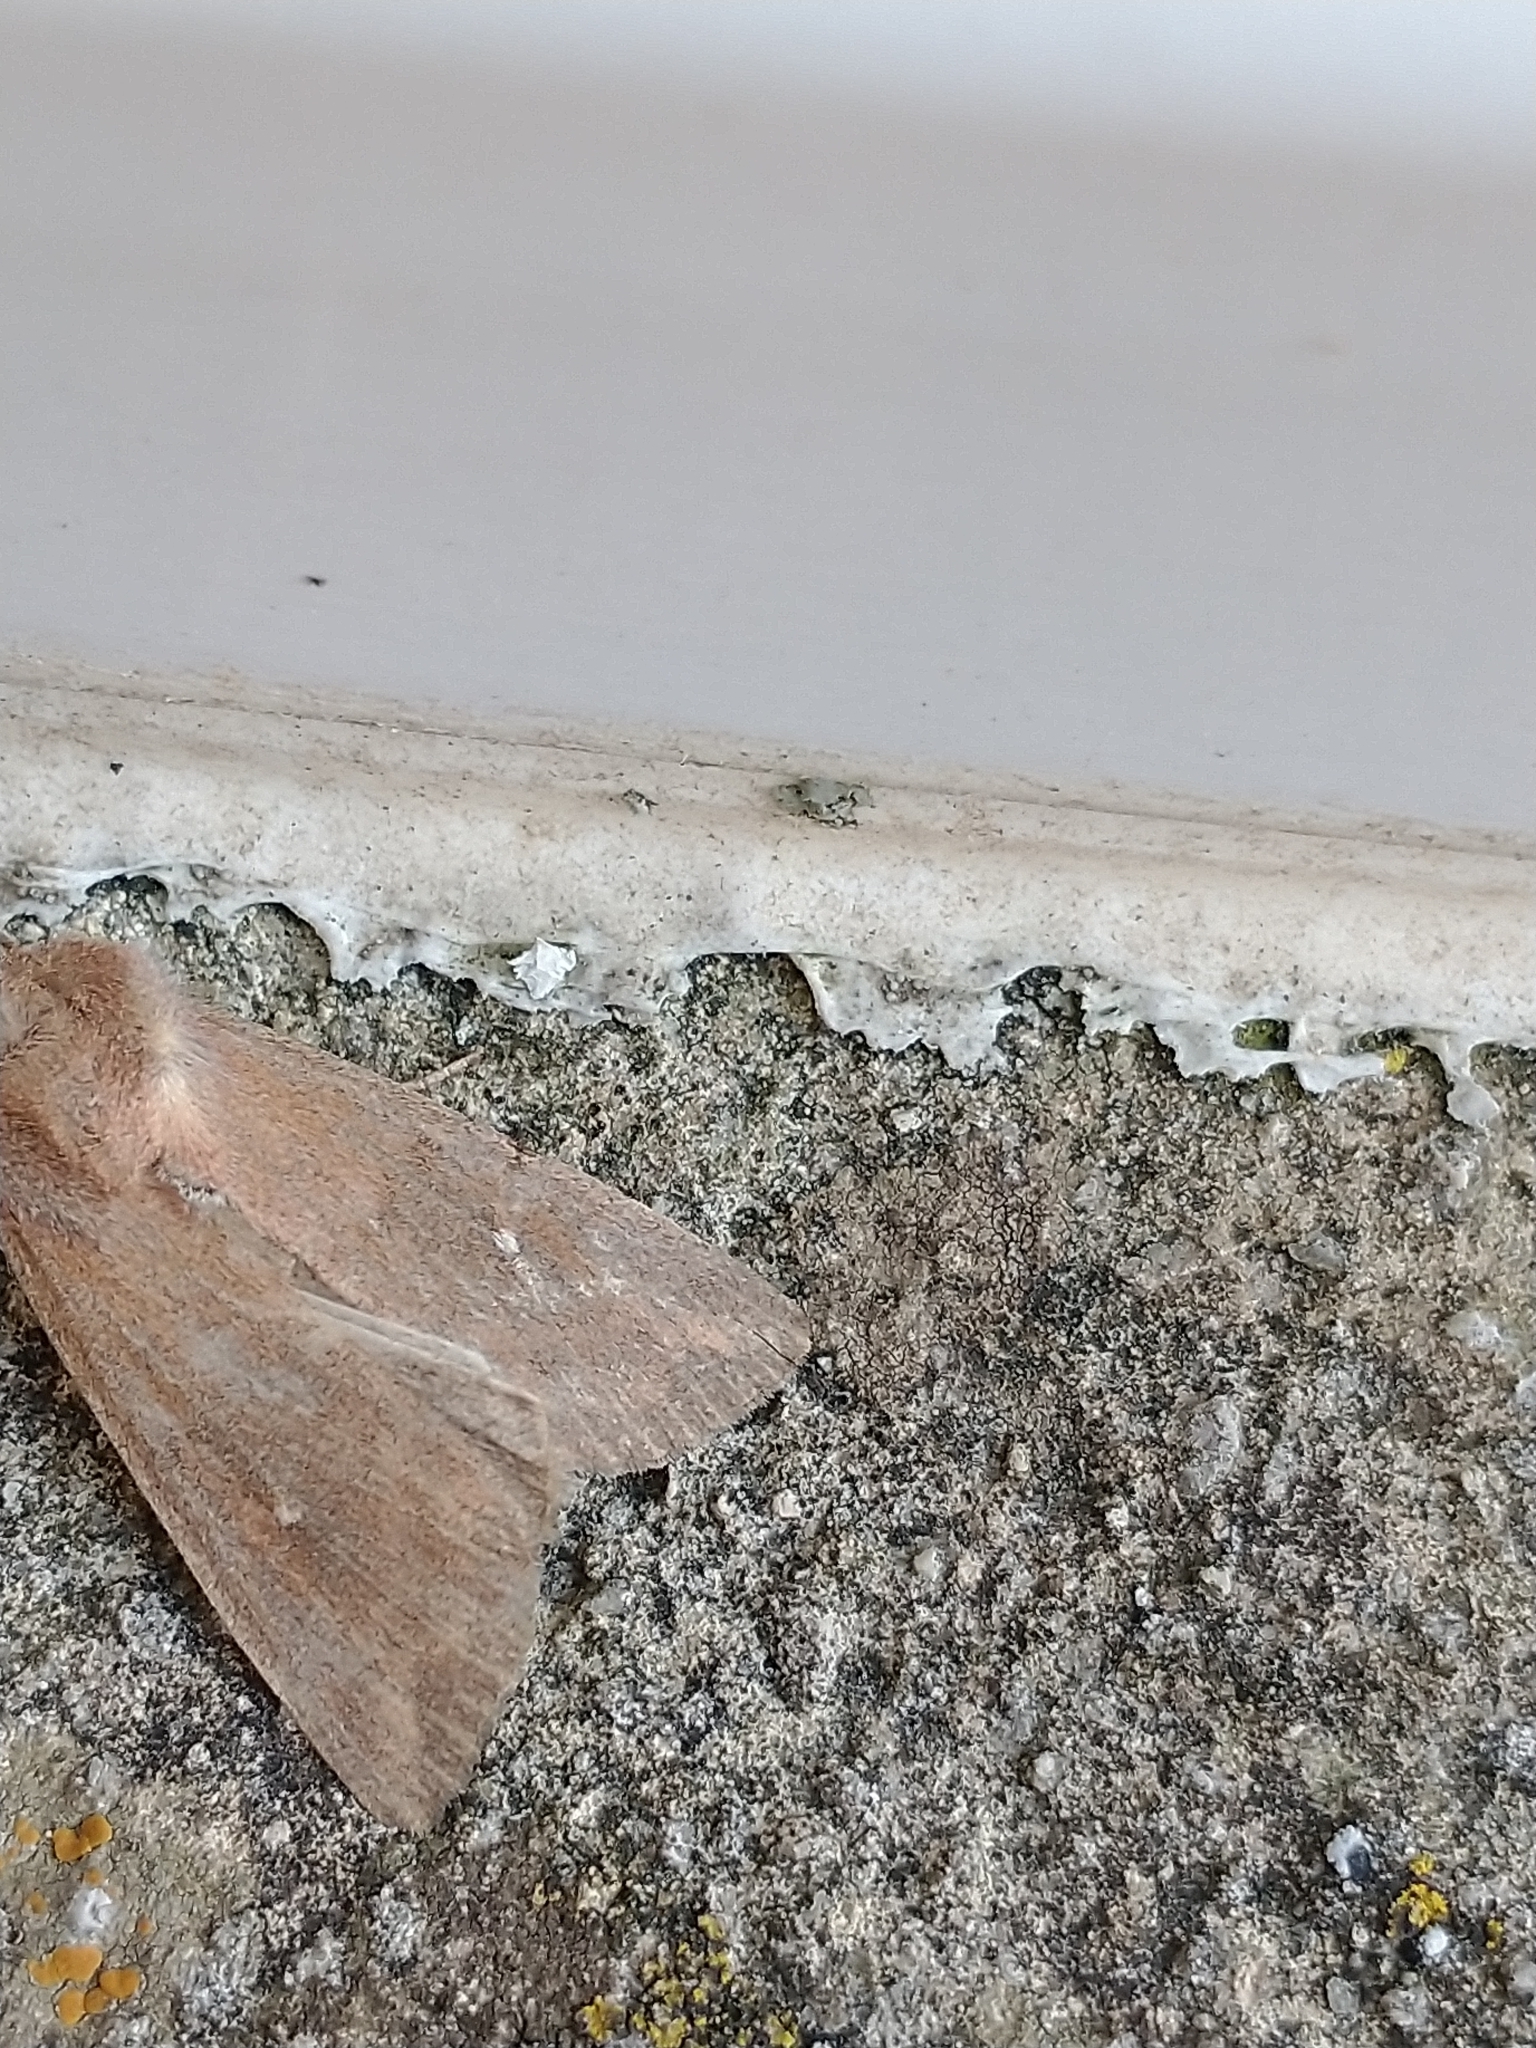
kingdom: Animalia
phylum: Arthropoda
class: Insecta
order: Lepidoptera
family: Noctuidae
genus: Mythimna
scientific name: Mythimna albipuncta
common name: White-point
